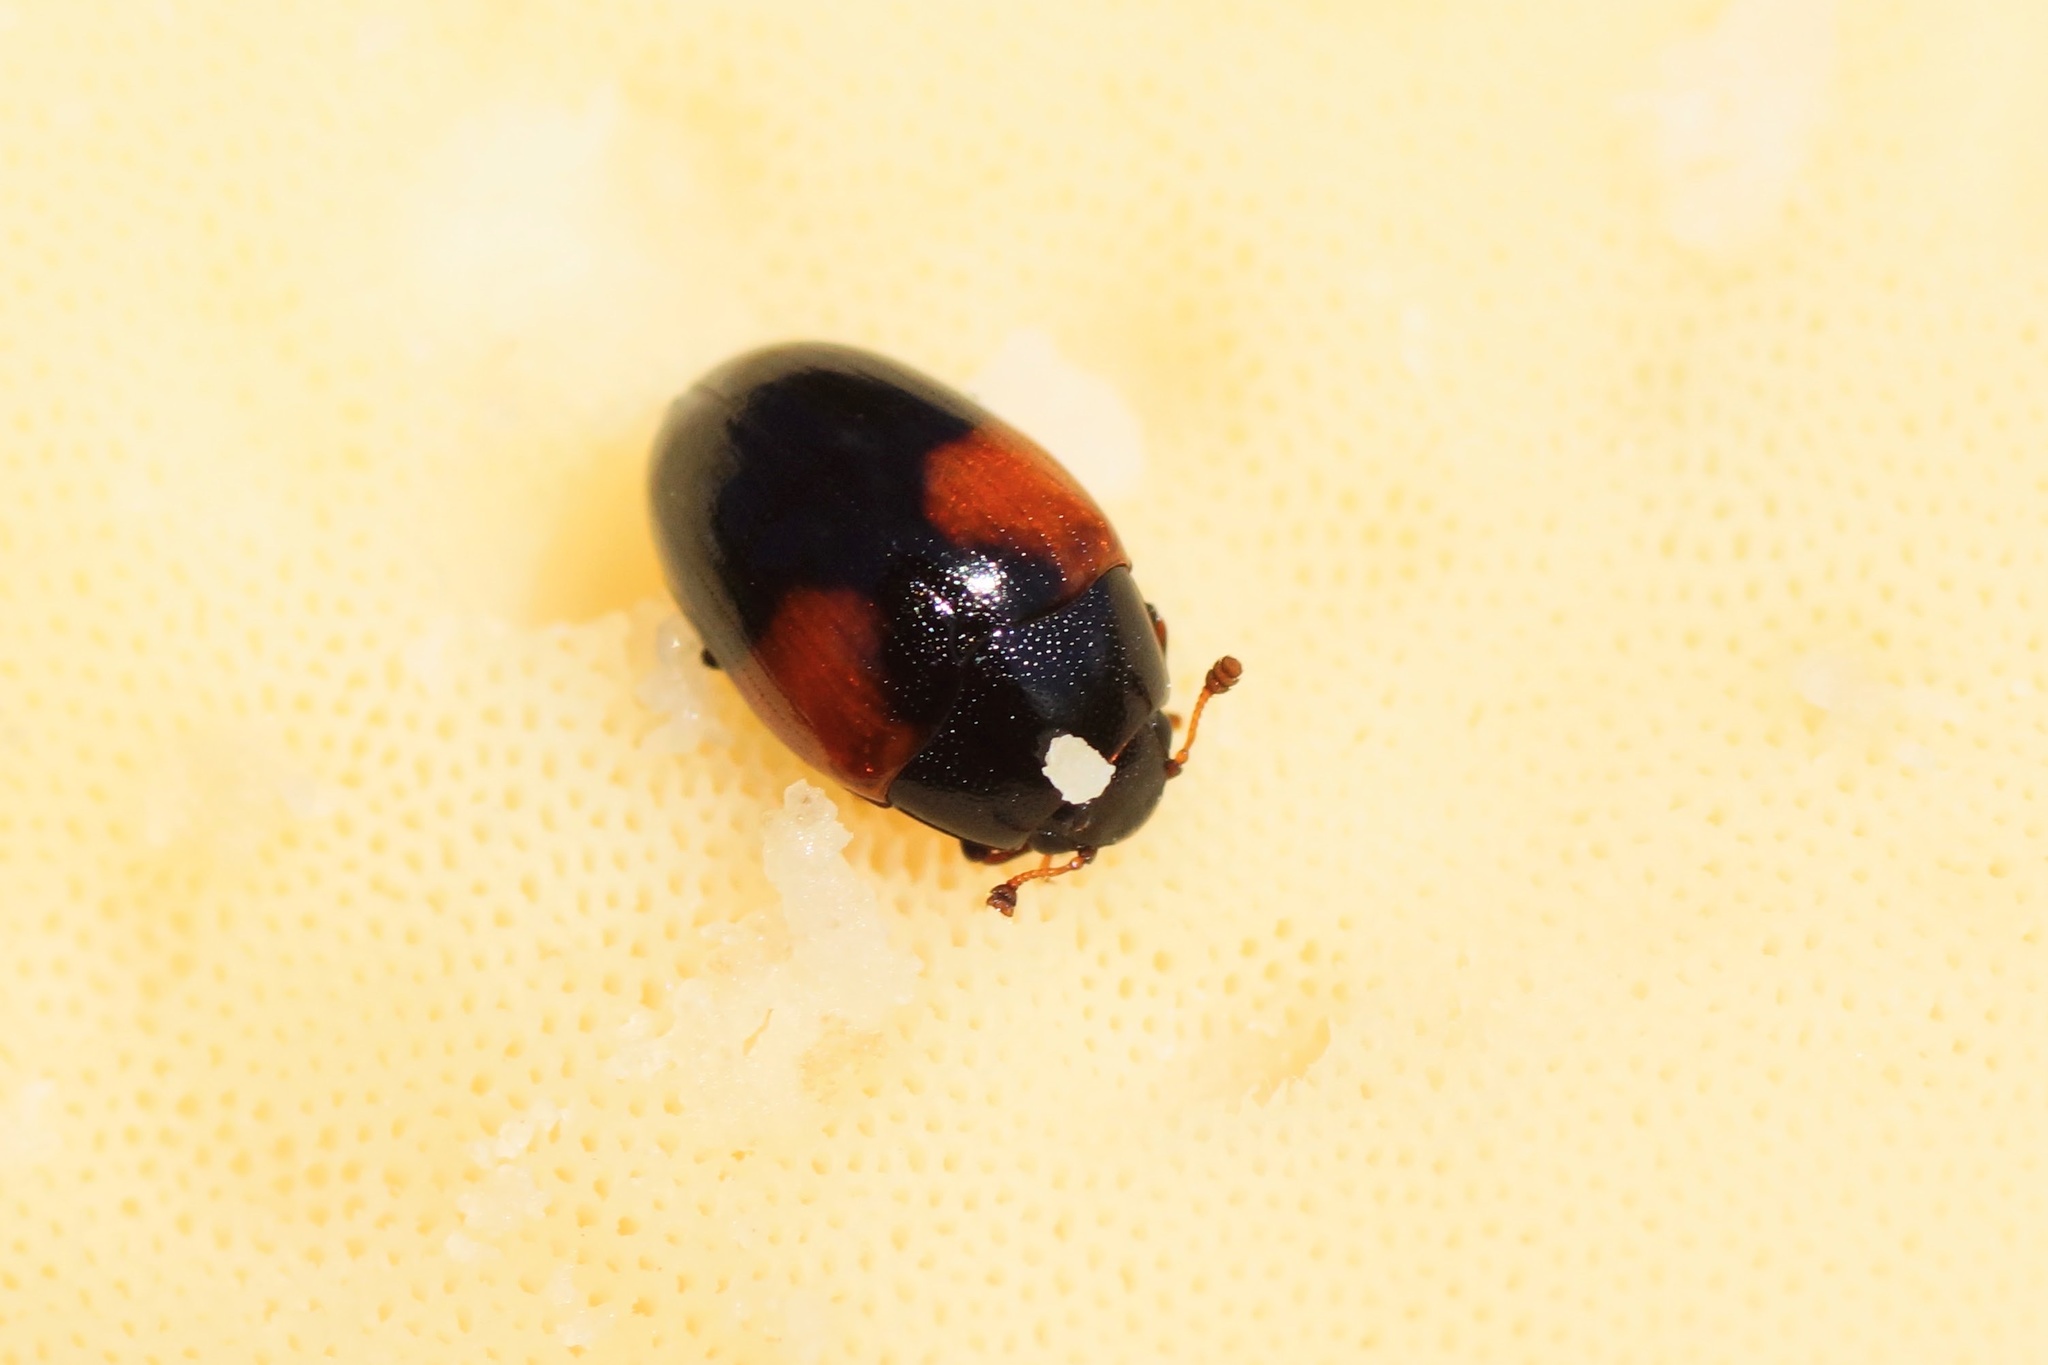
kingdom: Animalia
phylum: Arthropoda
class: Insecta
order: Coleoptera
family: Erotylidae
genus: Tritoma
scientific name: Tritoma bipustulata
